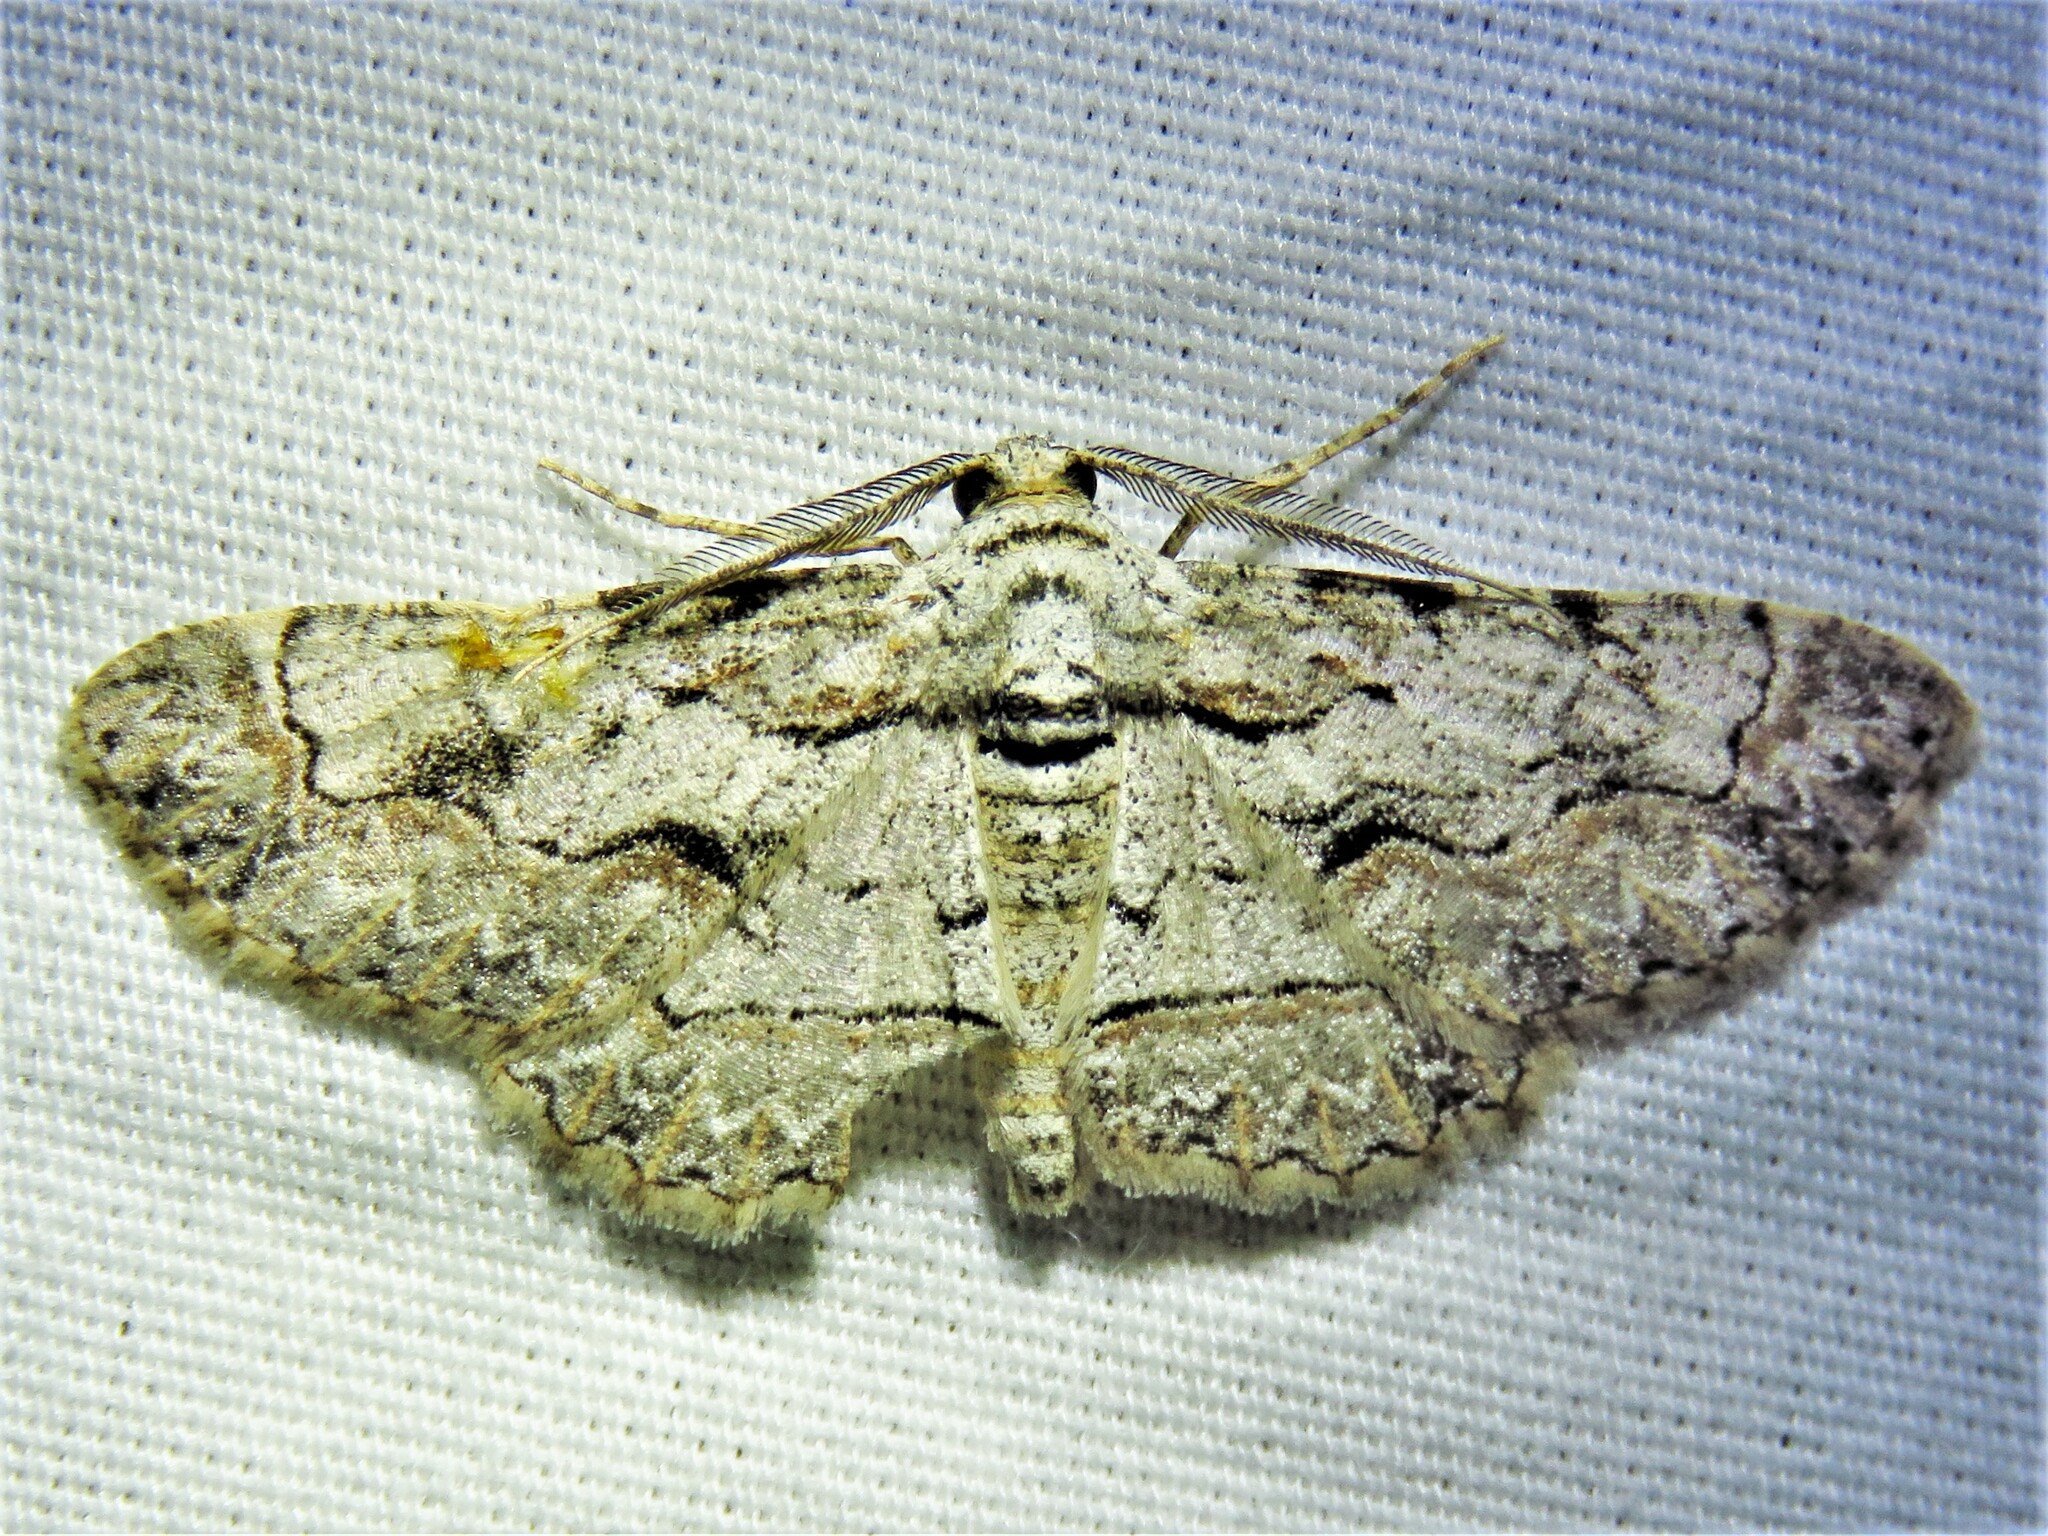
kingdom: Animalia
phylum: Arthropoda
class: Insecta
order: Lepidoptera
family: Geometridae
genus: Anavitrinella
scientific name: Anavitrinella pampinaria
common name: Common gray
